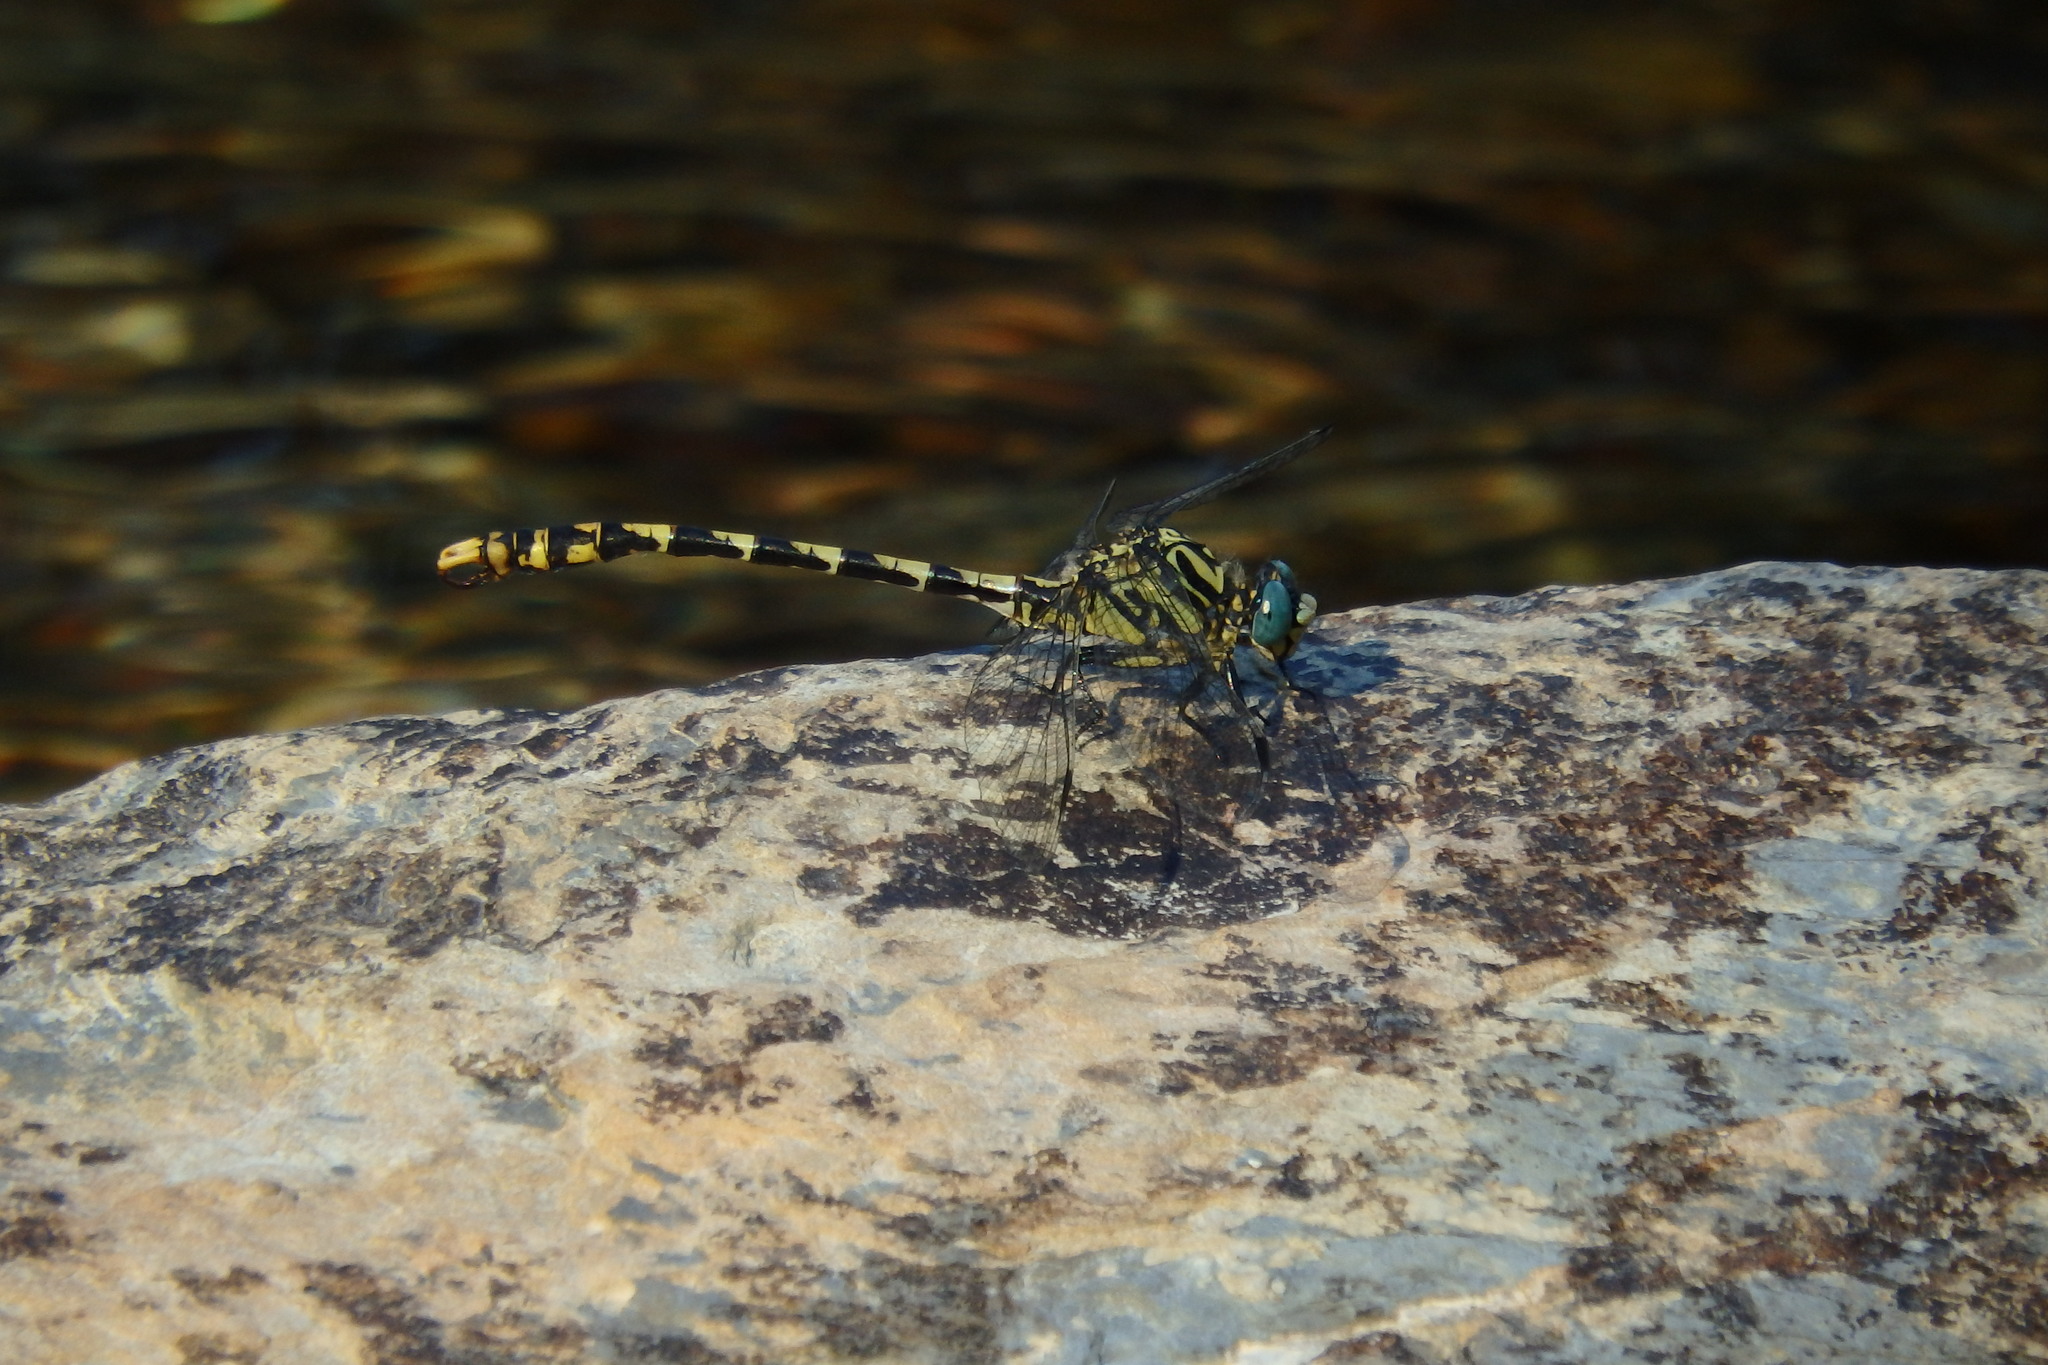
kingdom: Animalia
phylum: Arthropoda
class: Insecta
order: Odonata
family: Gomphidae
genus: Onychogomphus
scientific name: Onychogomphus uncatus
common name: Large pincertail
